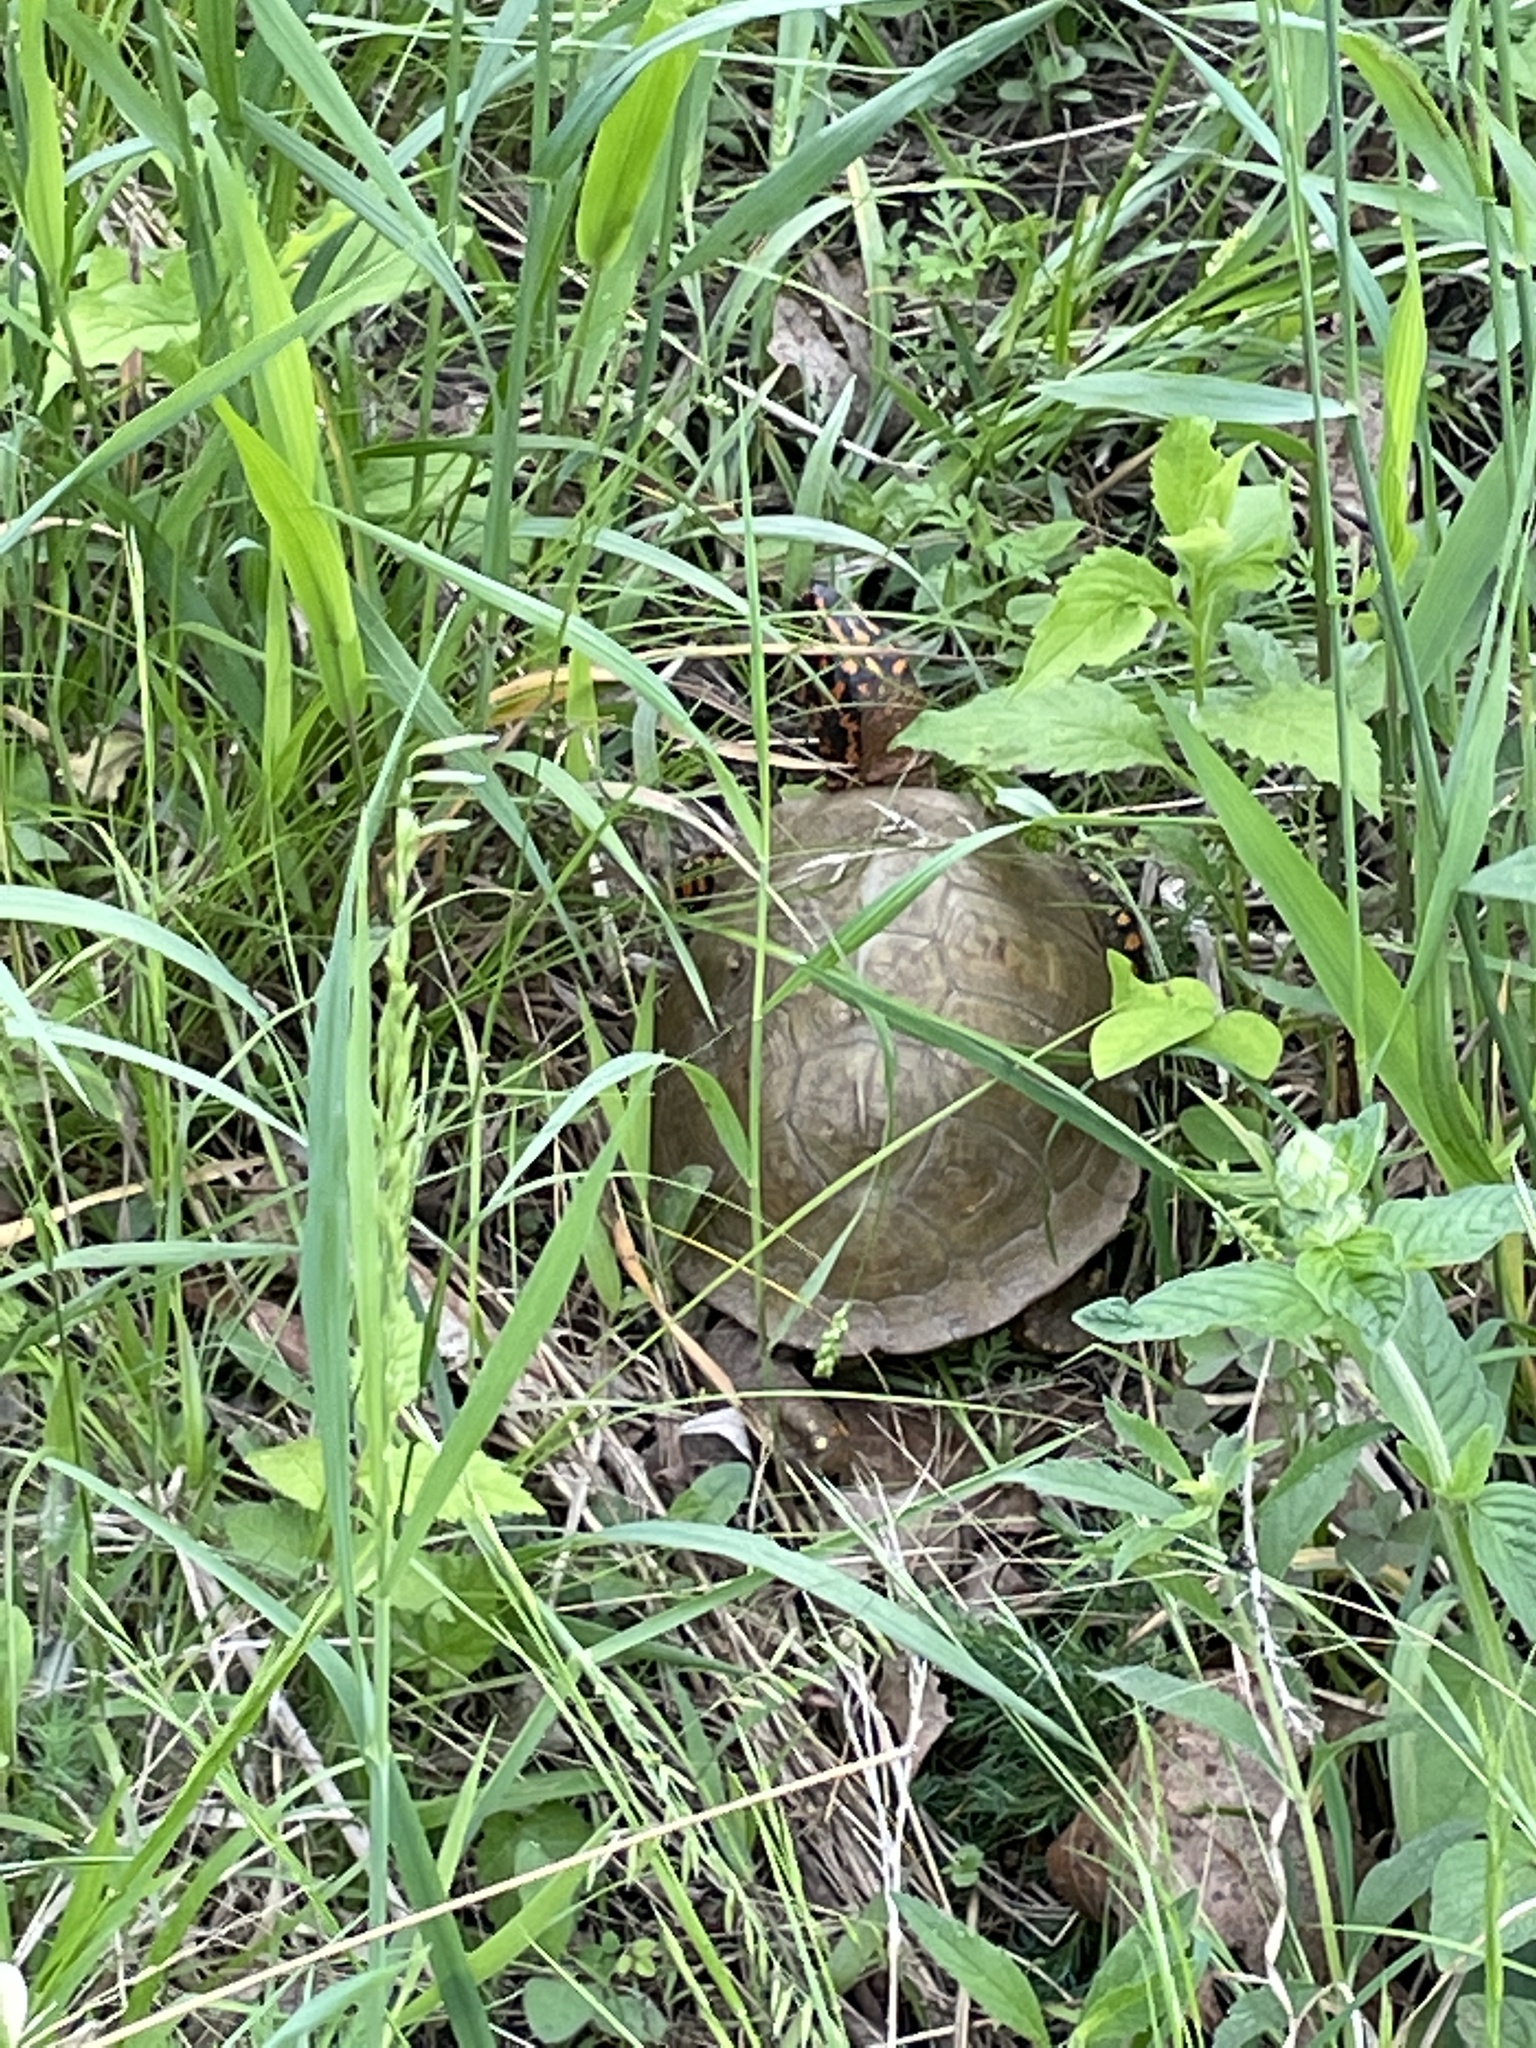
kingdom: Animalia
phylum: Chordata
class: Testudines
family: Emydidae
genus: Terrapene
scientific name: Terrapene carolina
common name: Common box turtle
